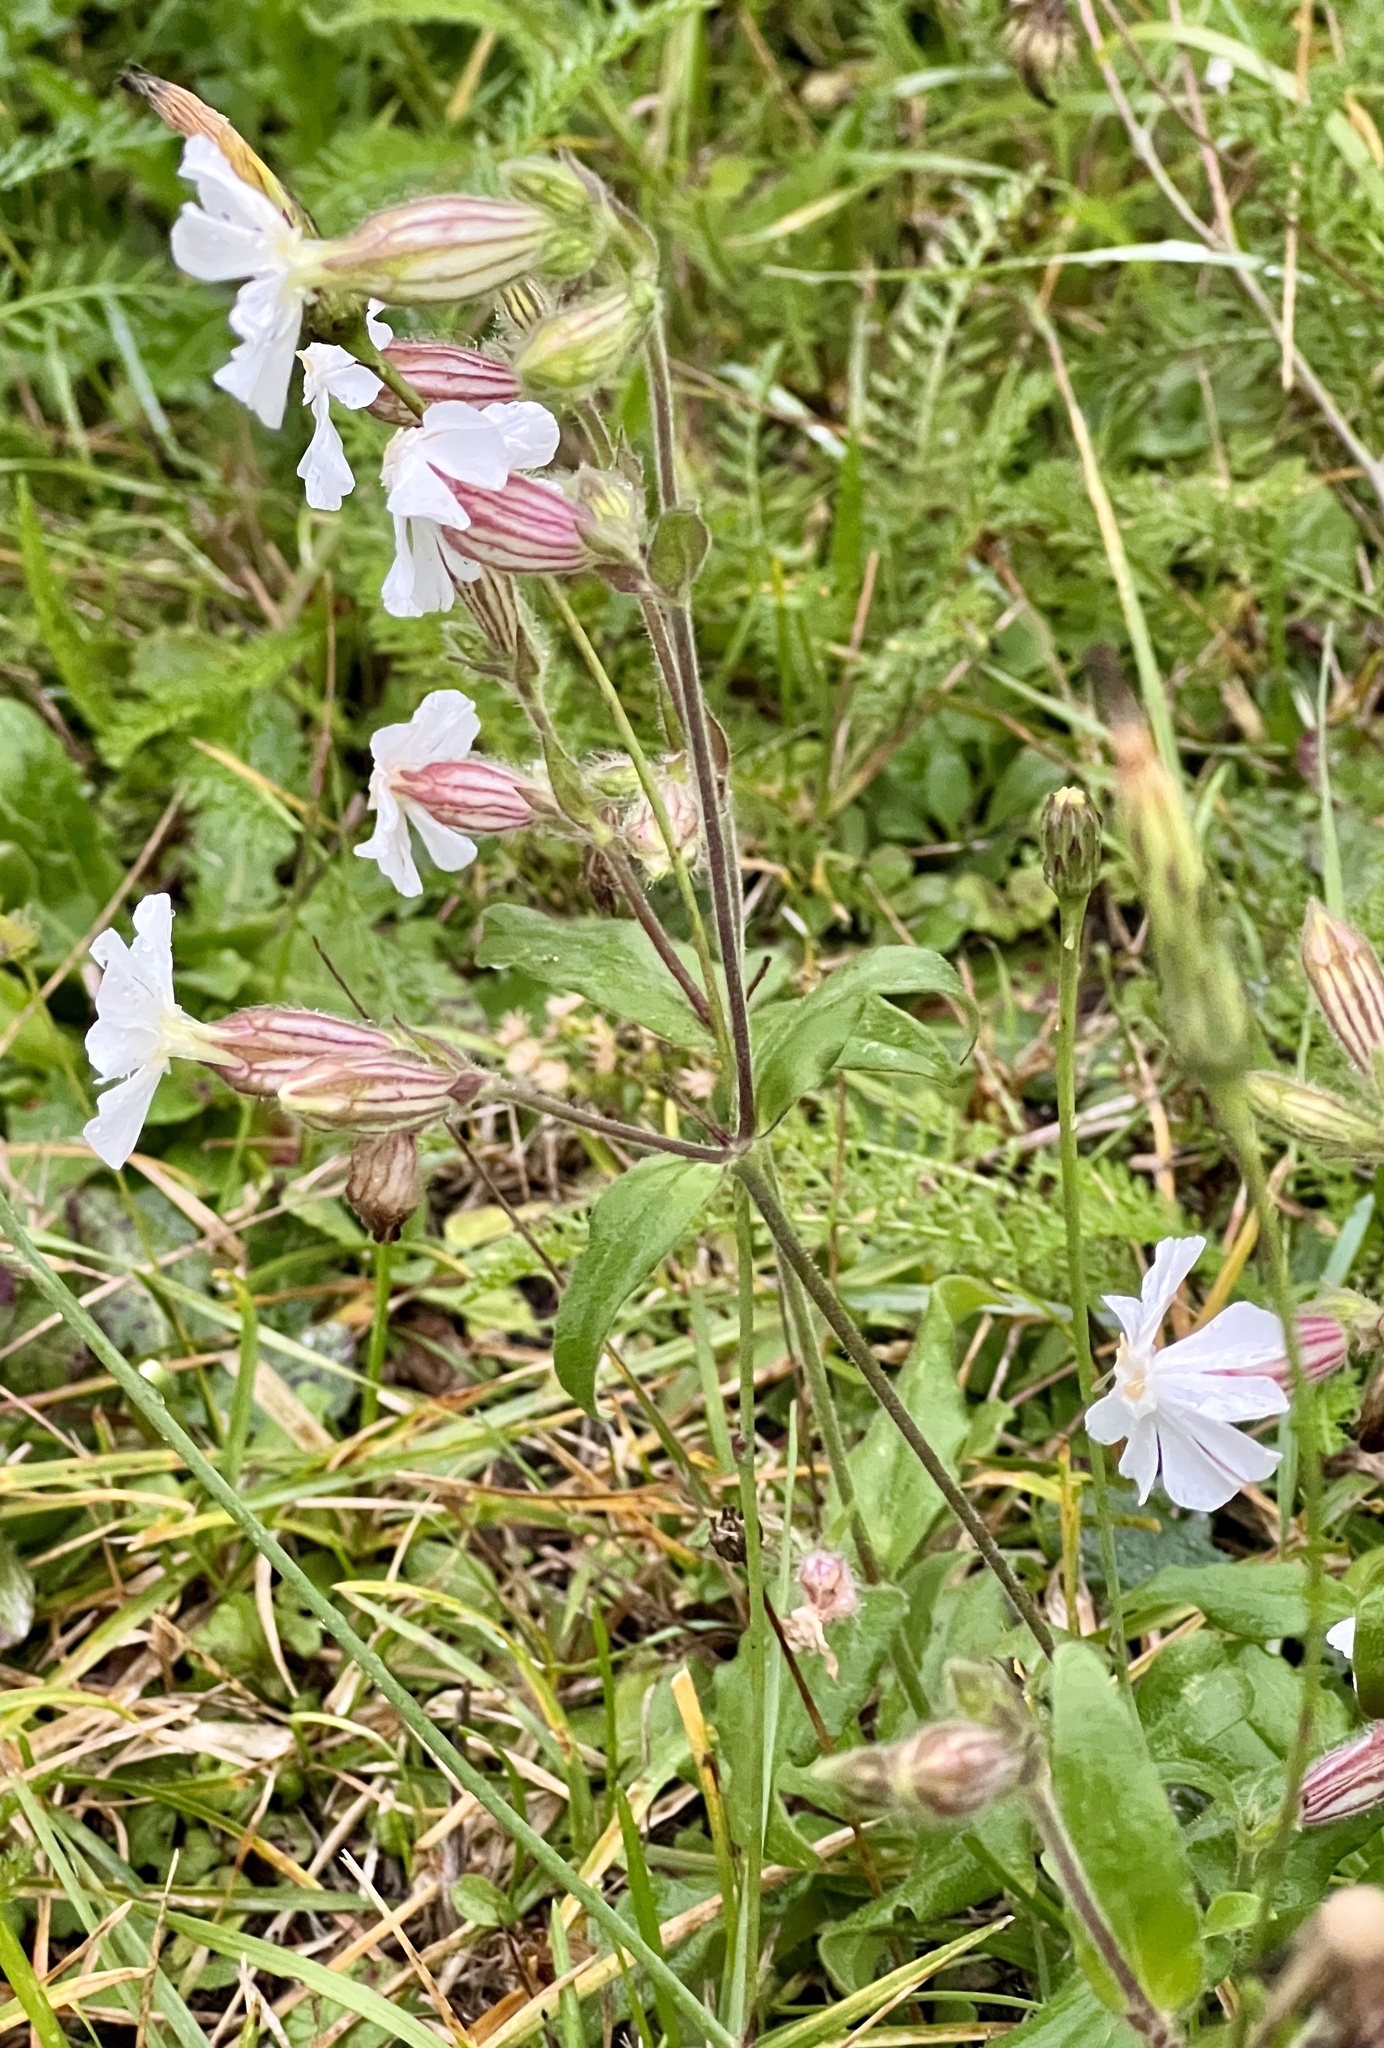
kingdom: Plantae
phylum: Tracheophyta
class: Magnoliopsida
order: Caryophyllales
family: Caryophyllaceae
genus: Silene
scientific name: Silene latifolia
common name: White campion
